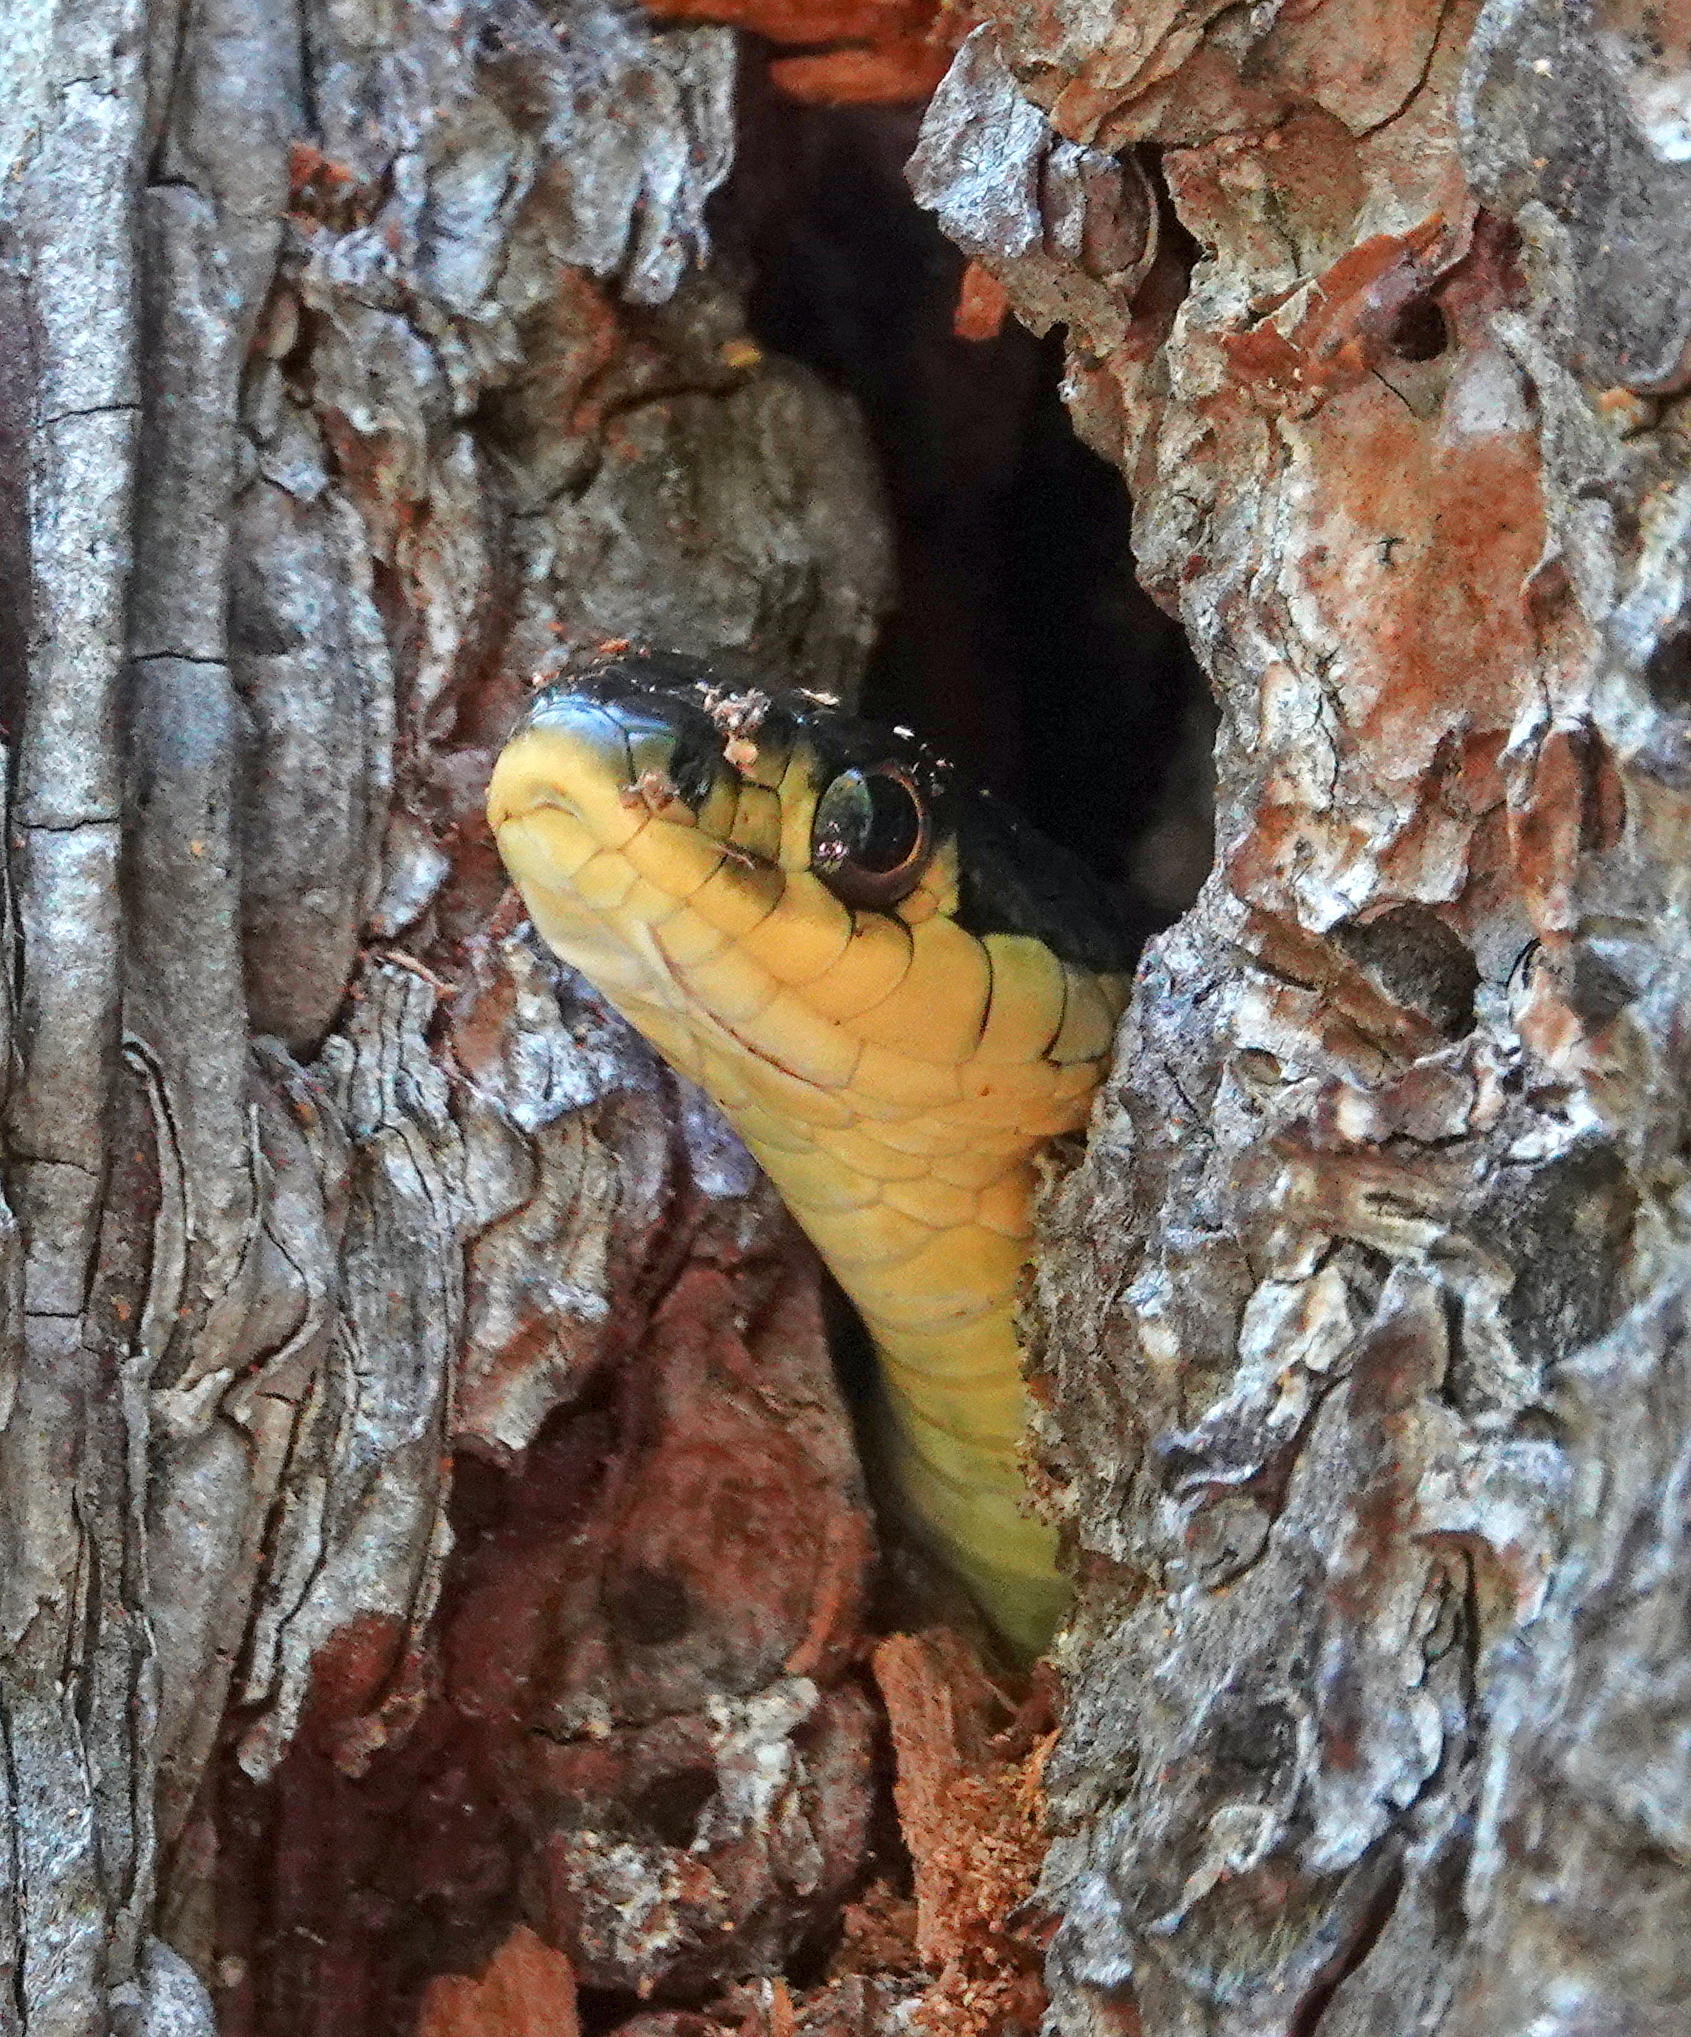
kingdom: Animalia
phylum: Chordata
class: Squamata
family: Colubridae
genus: Thamnophis
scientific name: Thamnophis sirtalis
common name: Common garter snake
